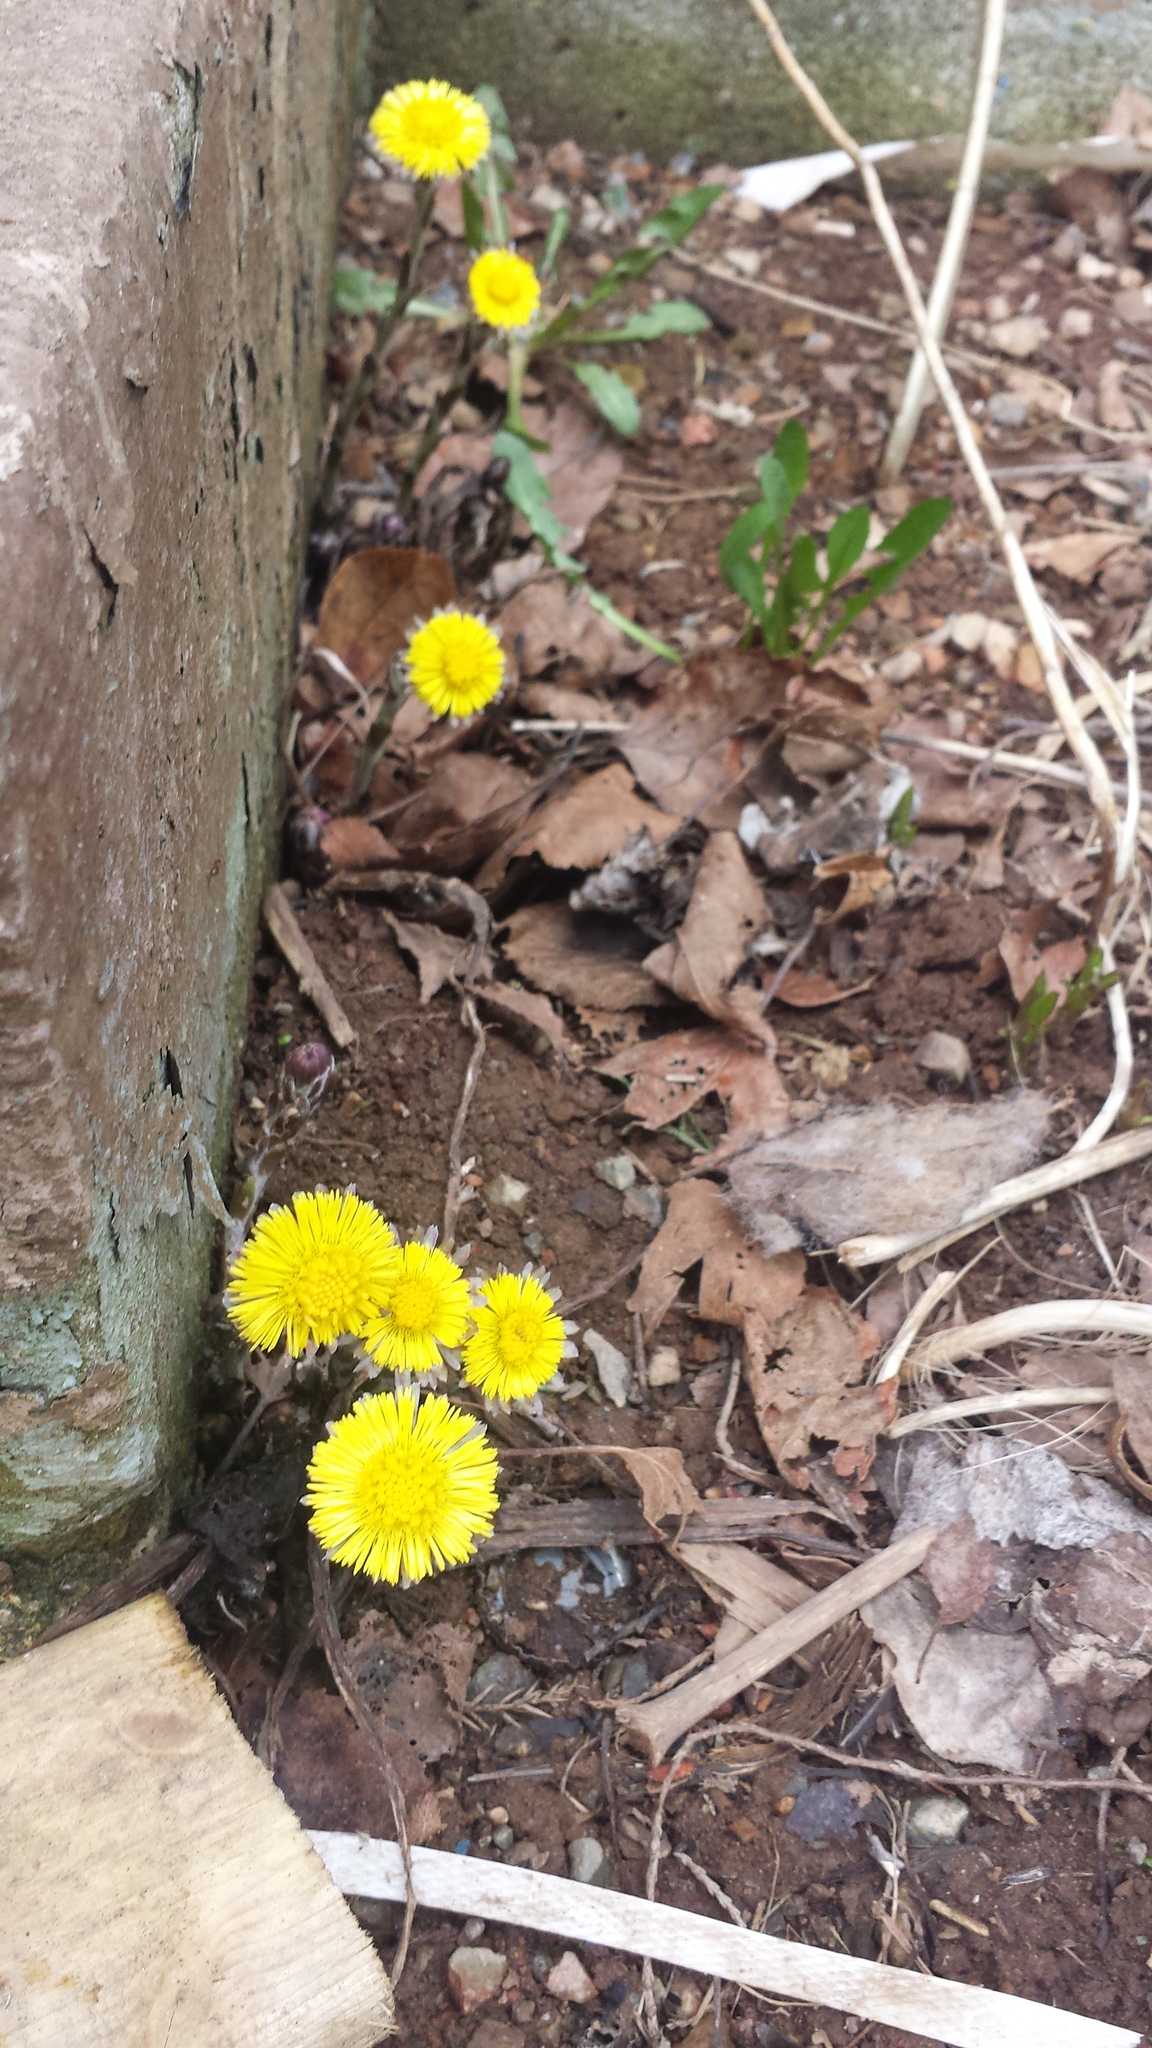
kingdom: Plantae
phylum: Tracheophyta
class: Magnoliopsida
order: Asterales
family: Asteraceae
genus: Tussilago
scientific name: Tussilago farfara
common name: Coltsfoot
